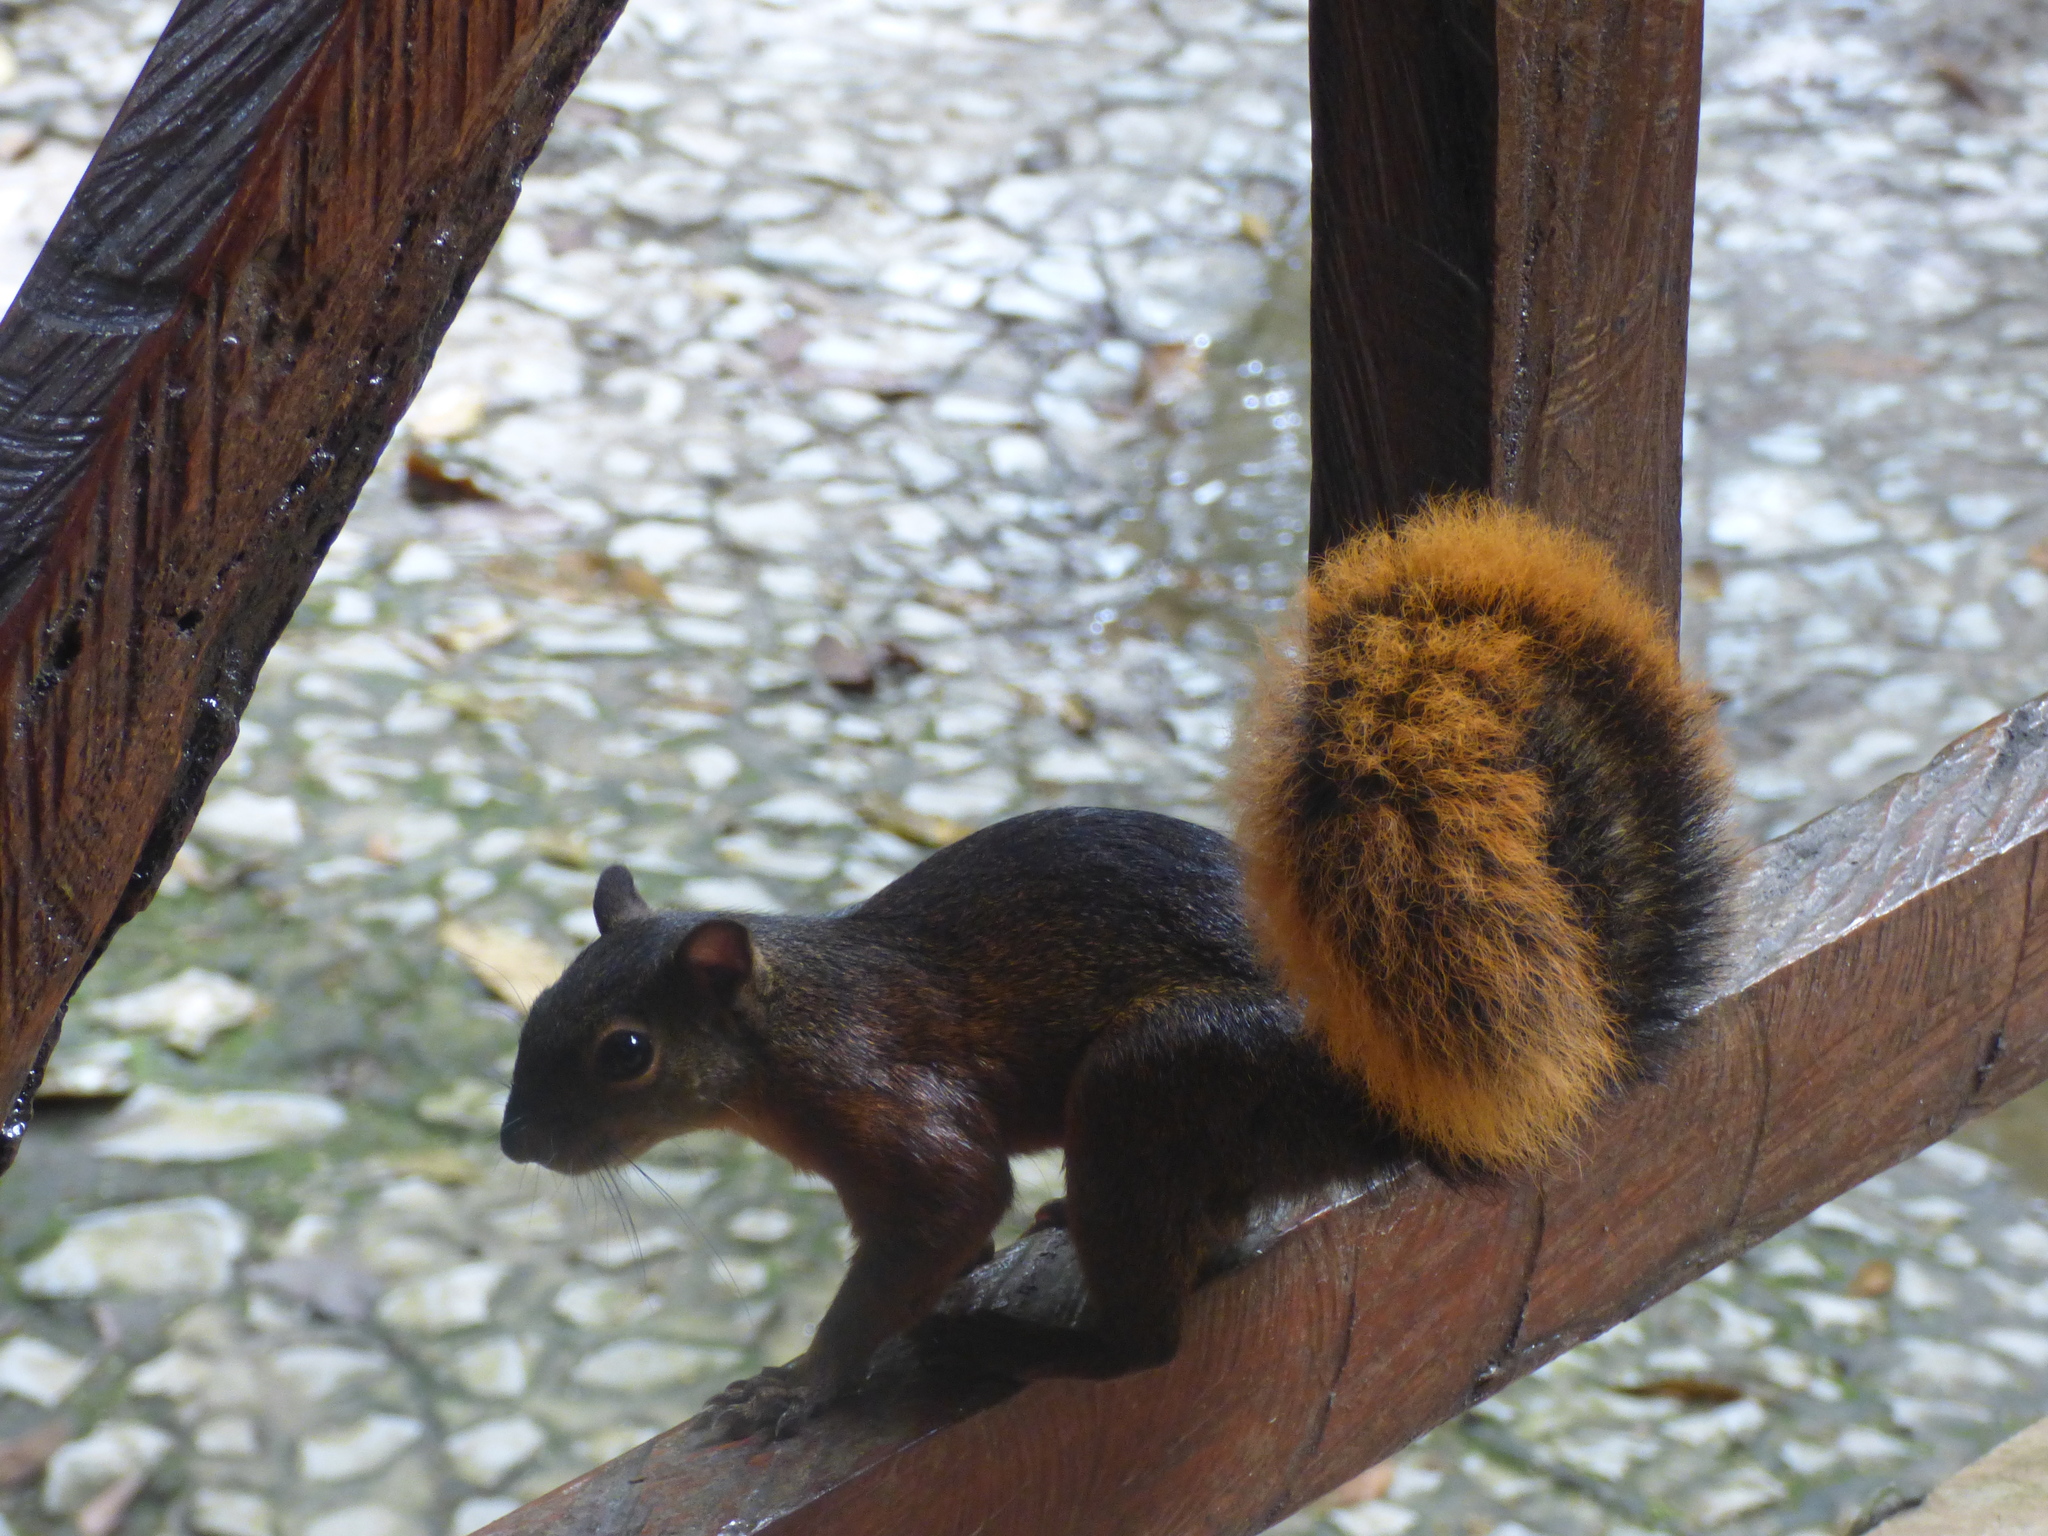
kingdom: Animalia
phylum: Chordata
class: Mammalia
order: Rodentia
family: Sciuridae
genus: Sciurus
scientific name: Sciurus granatensis
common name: Red-tailed squirrel
